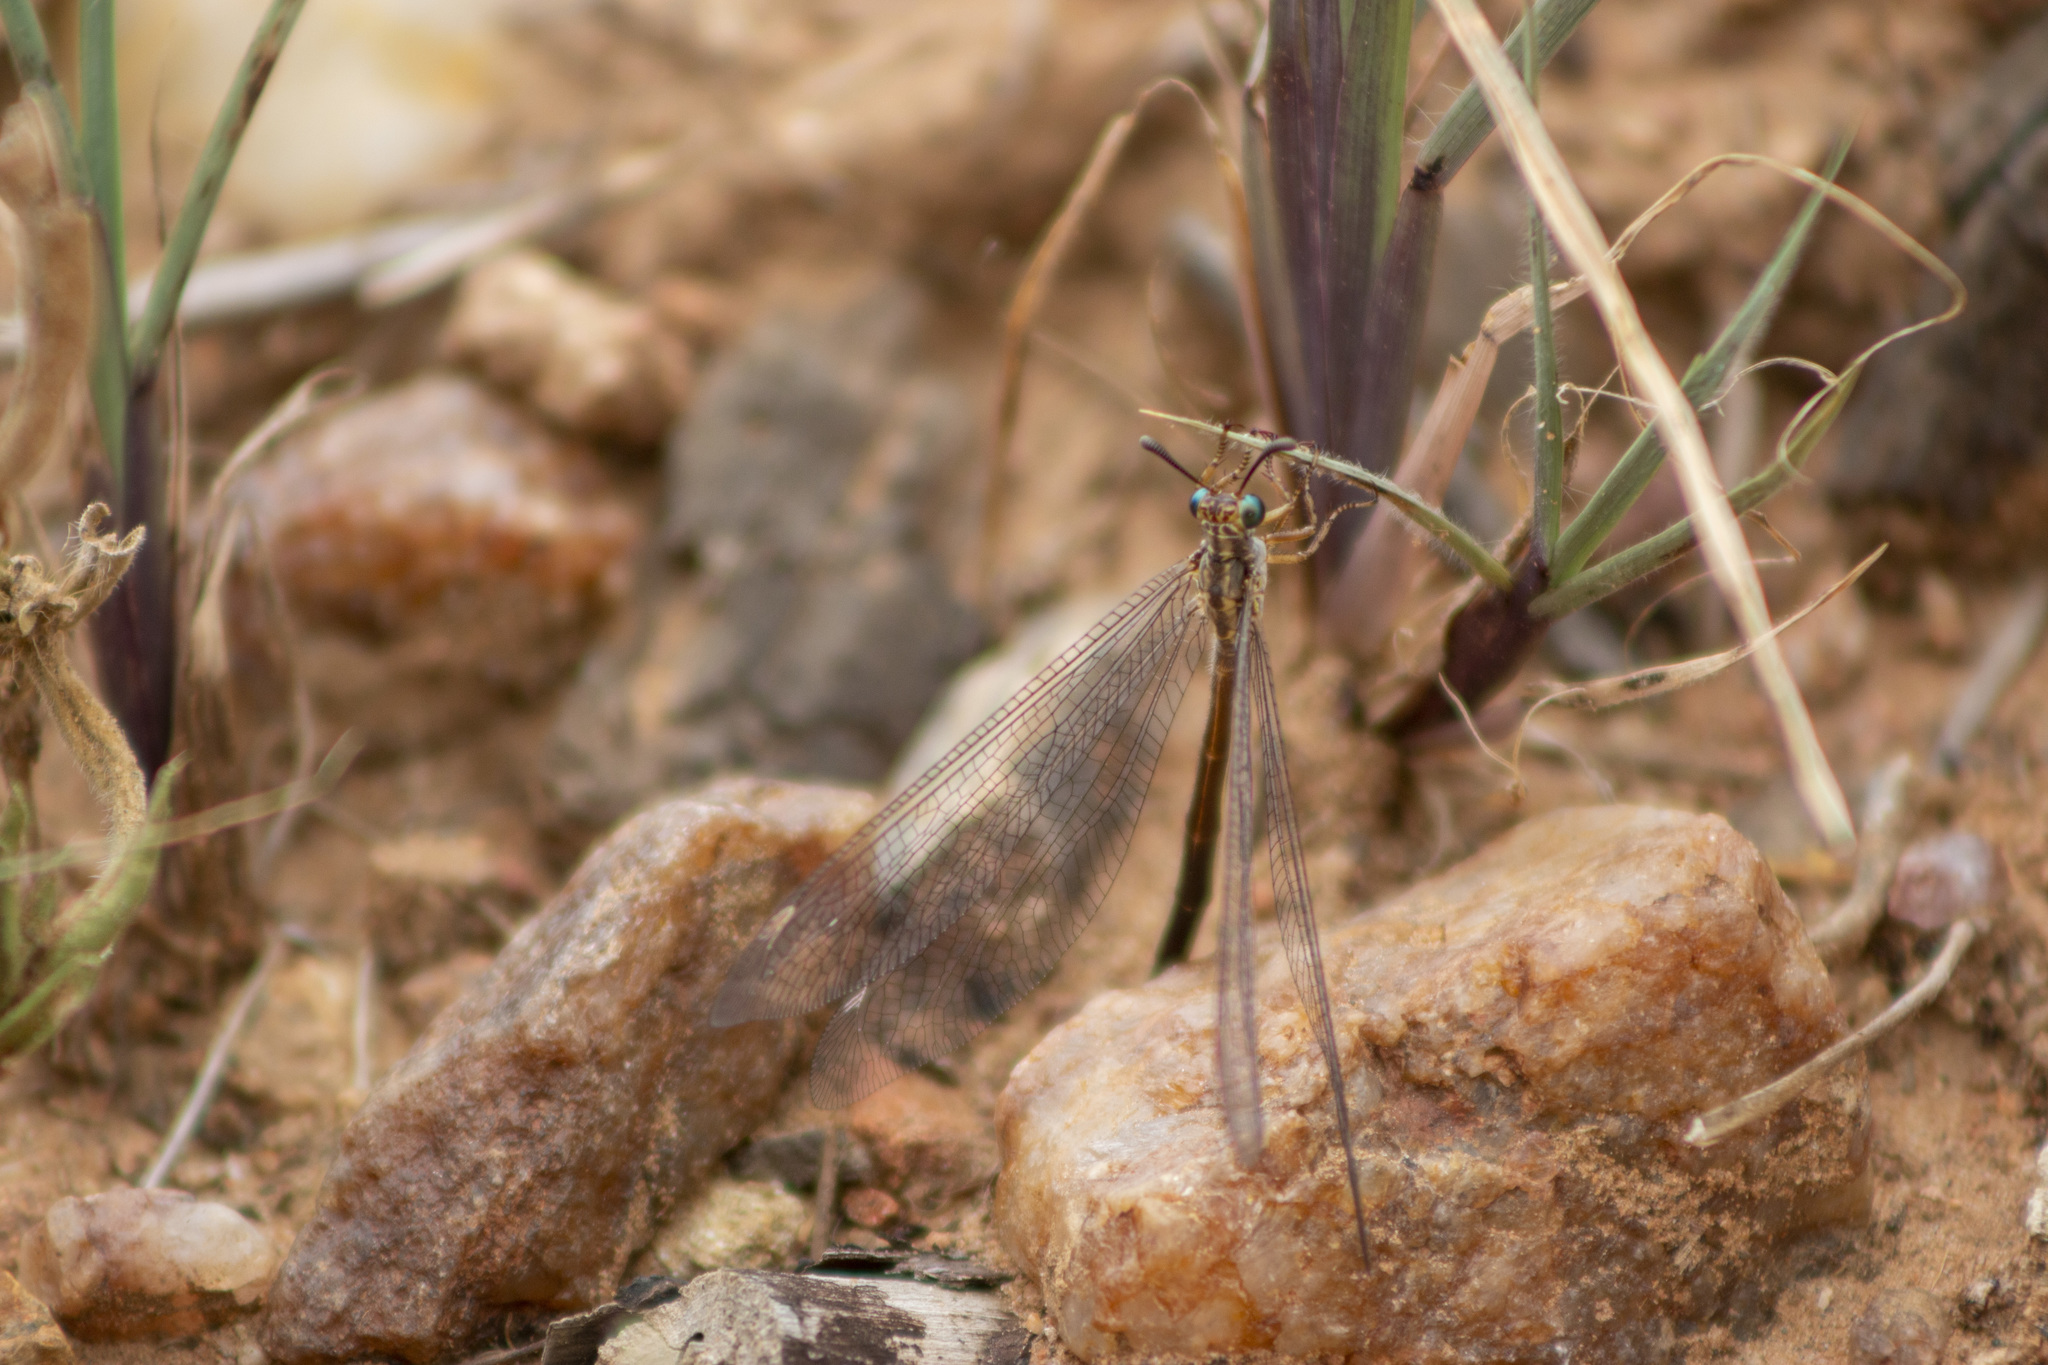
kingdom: Animalia
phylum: Arthropoda
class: Insecta
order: Neuroptera
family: Myrmeleontidae
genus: Dimares
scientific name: Dimares elegans
